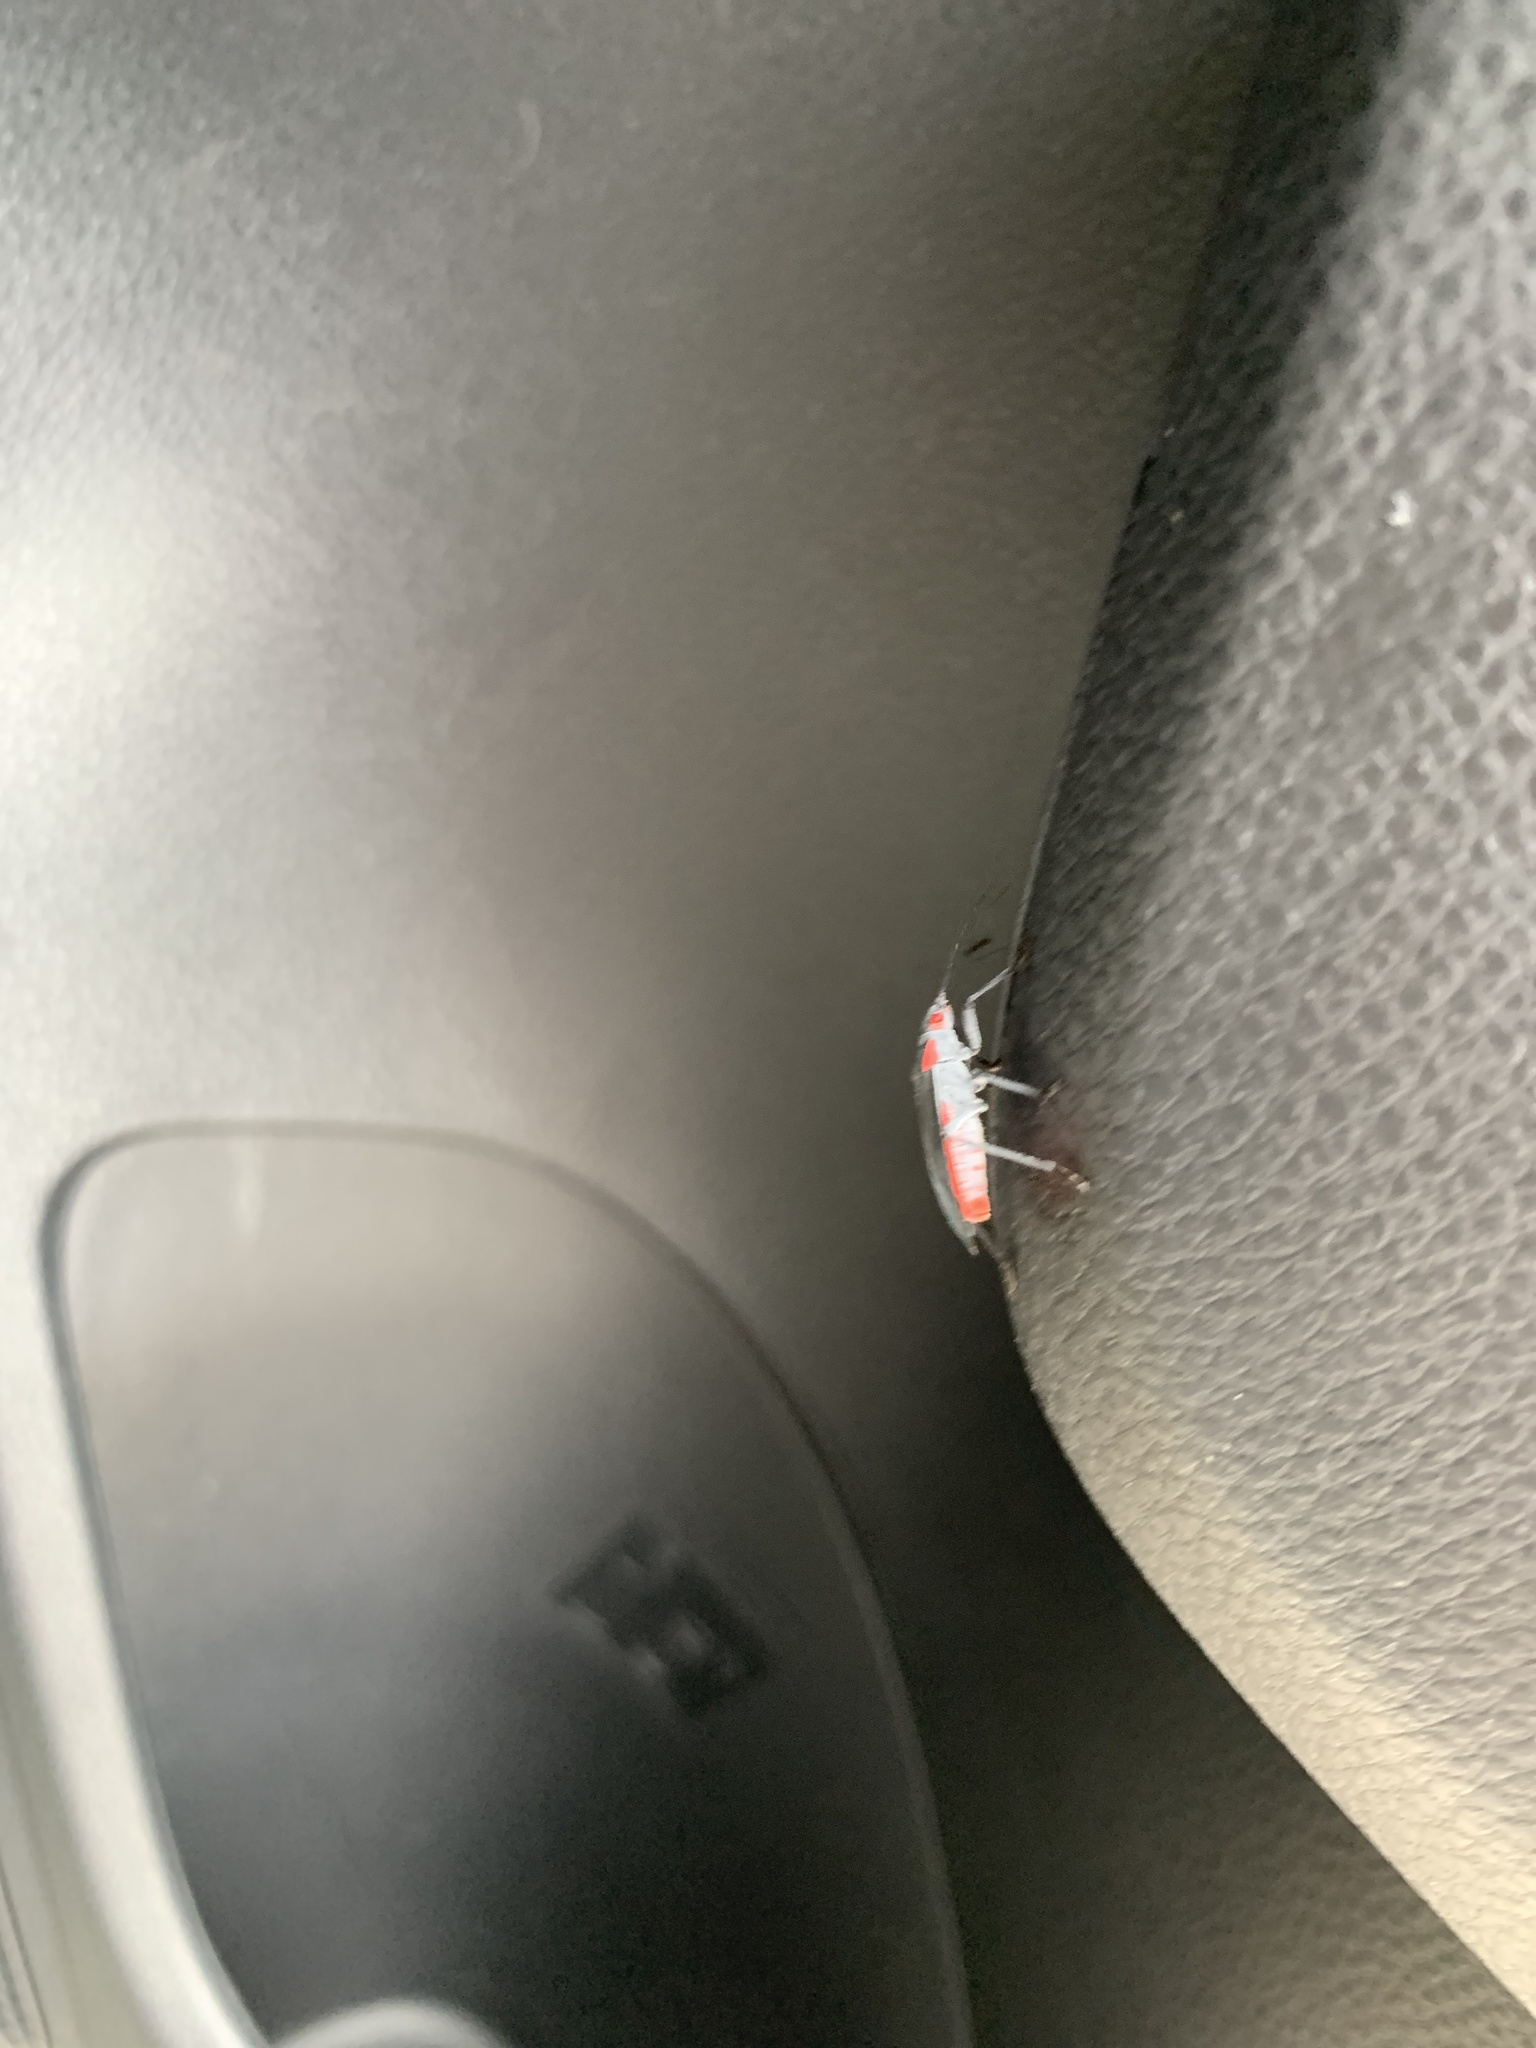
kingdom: Animalia
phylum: Arthropoda
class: Insecta
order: Hemiptera
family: Rhopalidae
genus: Jadera
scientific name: Jadera haematoloma
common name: Red-shouldered bug
